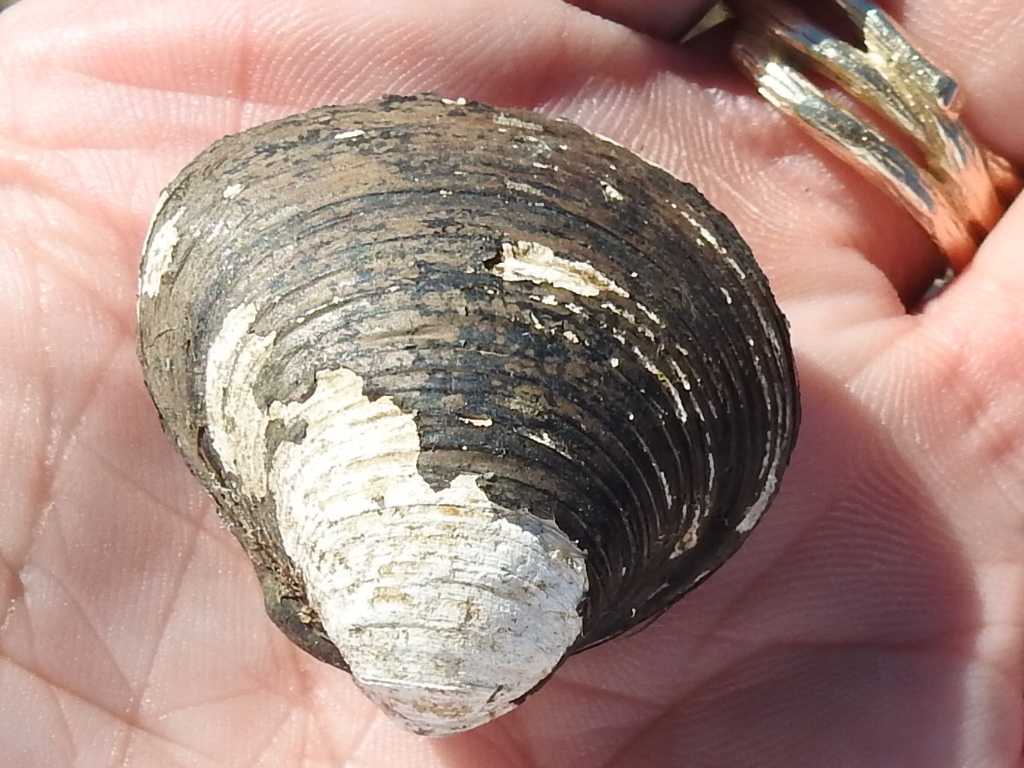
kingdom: Animalia
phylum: Mollusca
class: Bivalvia
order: Venerida
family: Cyrenidae
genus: Corbicula
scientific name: Corbicula fluminea
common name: Asian clam
